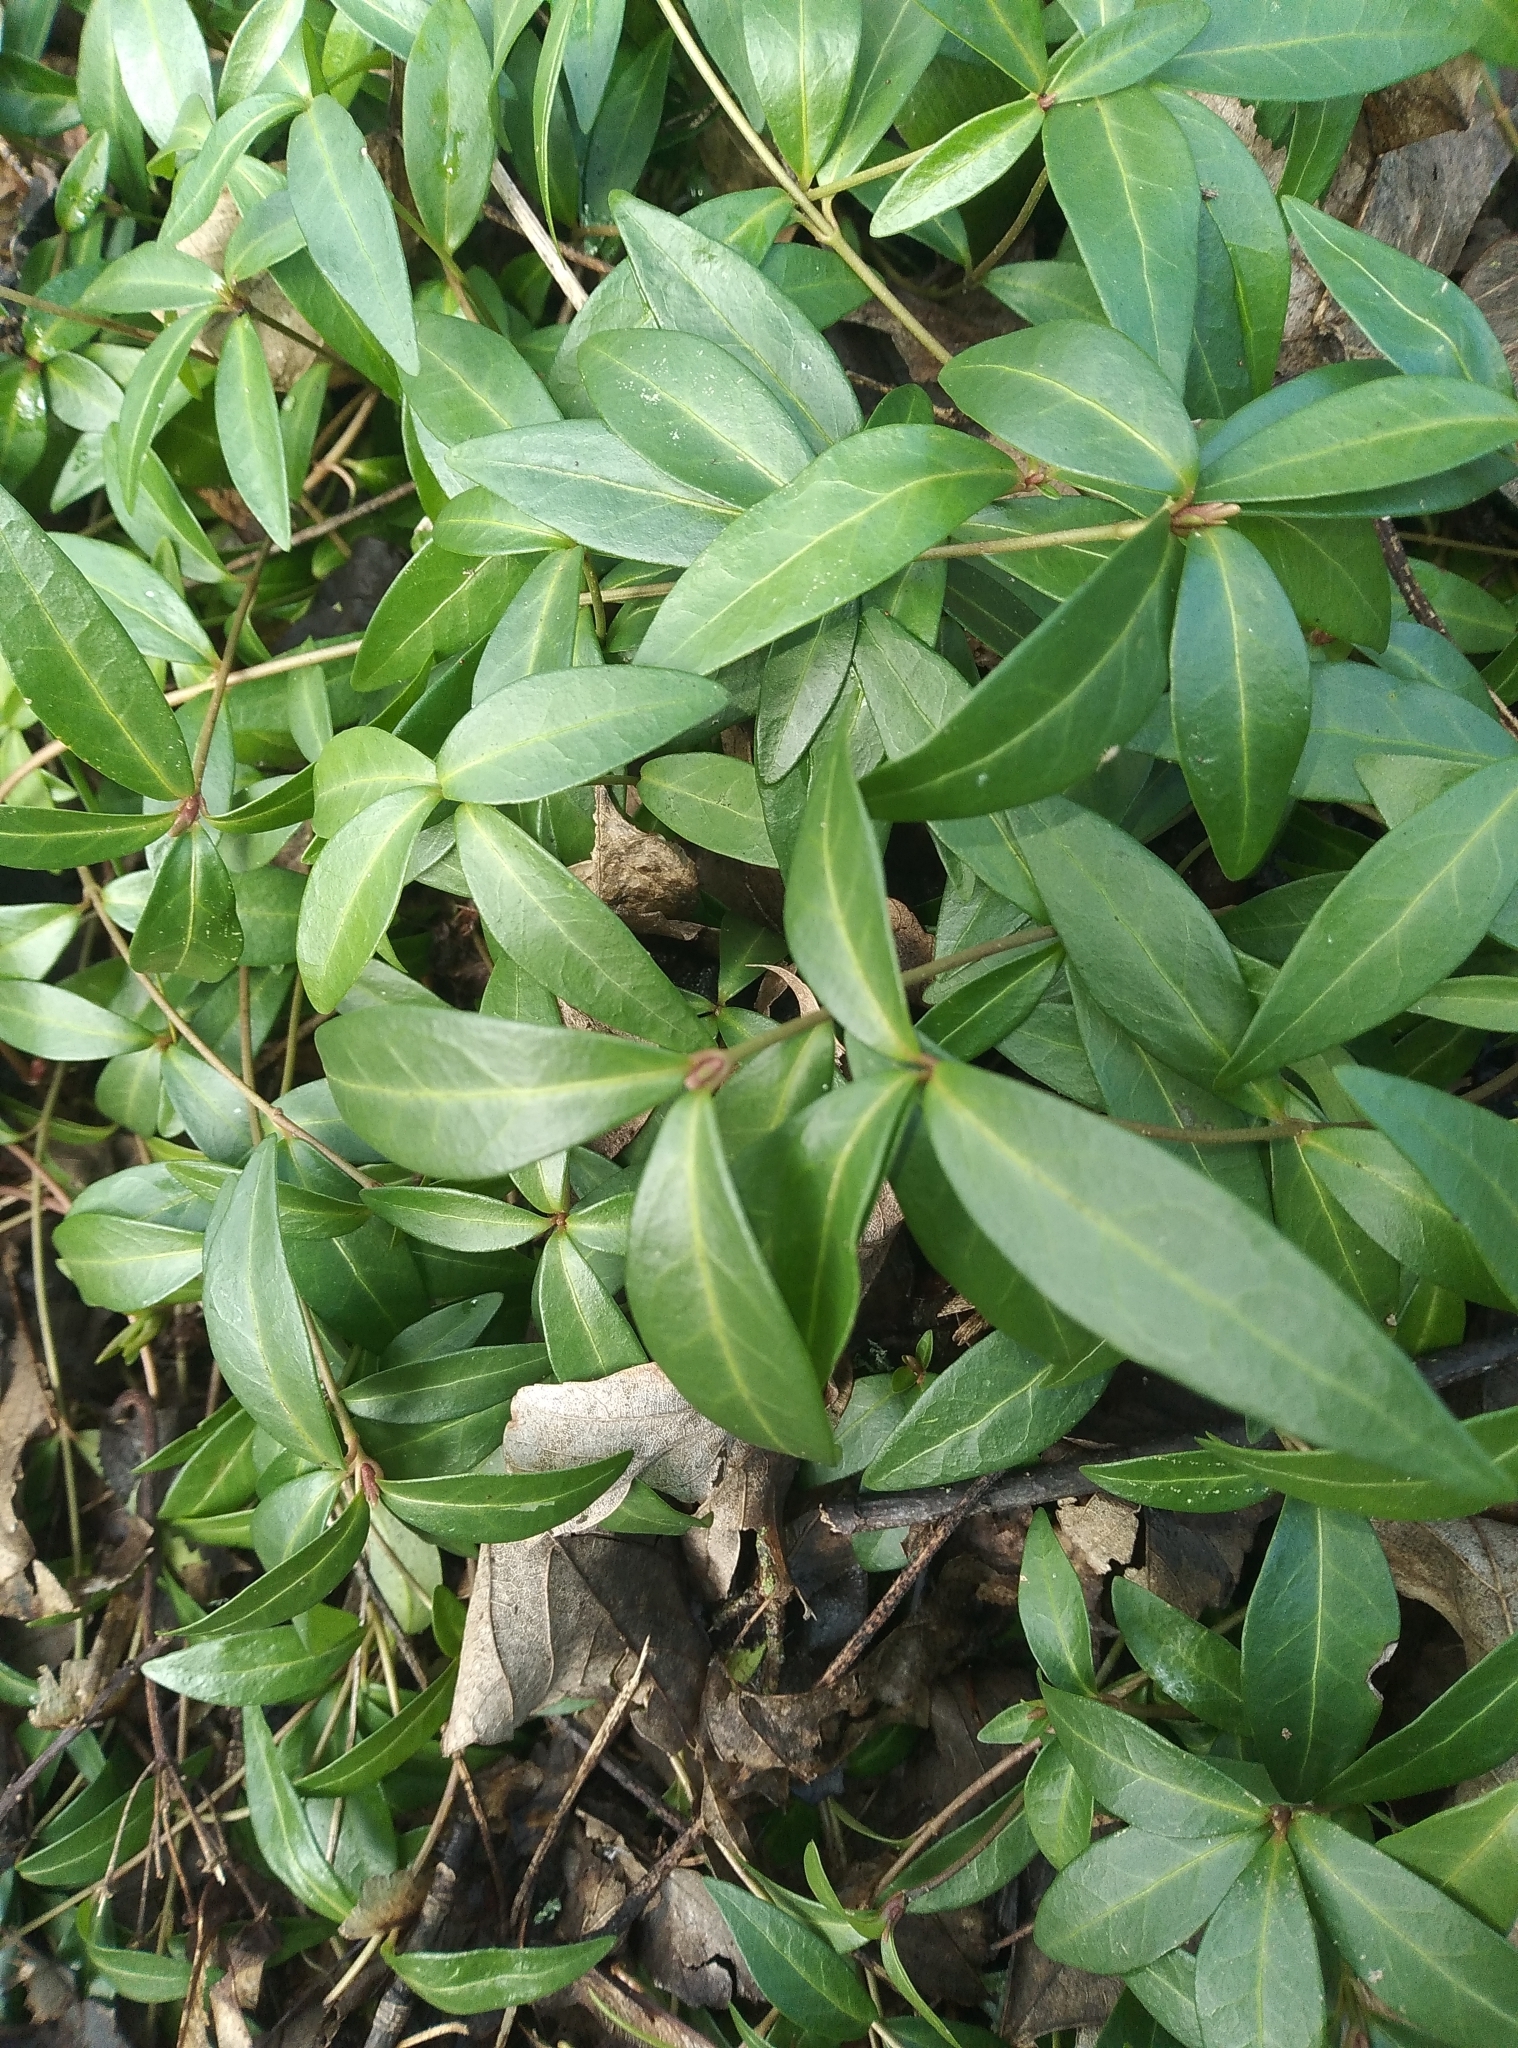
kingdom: Plantae
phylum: Tracheophyta
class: Magnoliopsida
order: Gentianales
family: Apocynaceae
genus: Vinca
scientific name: Vinca minor
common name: Lesser periwinkle
